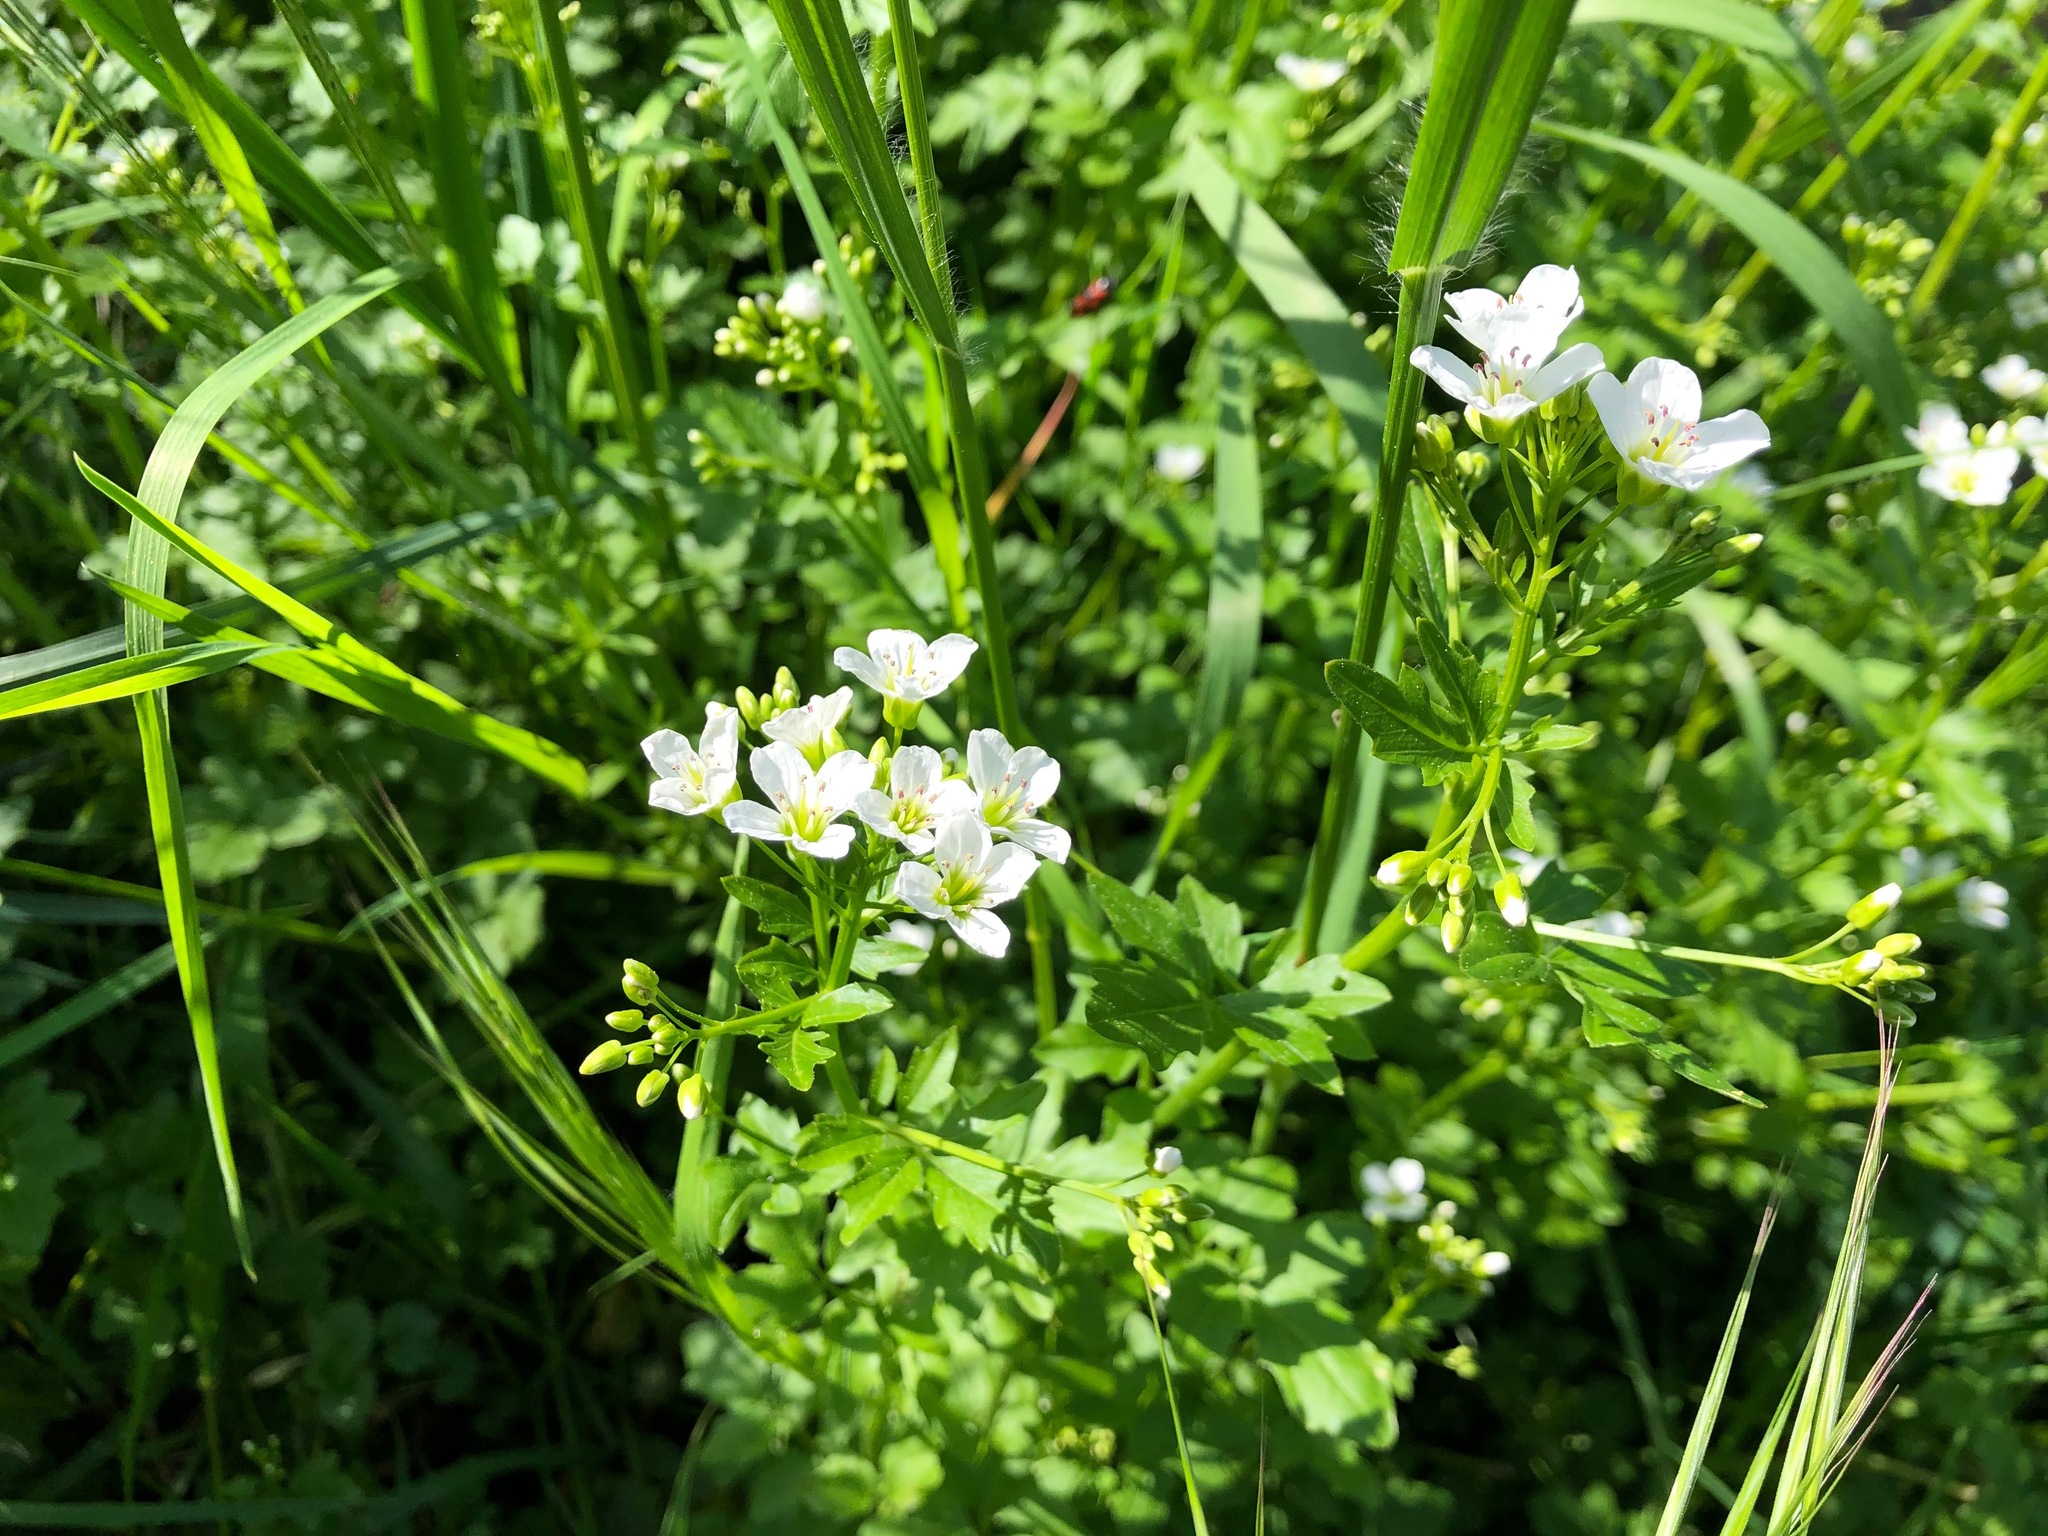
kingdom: Plantae
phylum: Tracheophyta
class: Magnoliopsida
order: Brassicales
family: Brassicaceae
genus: Cardamine
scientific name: Cardamine amara
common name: Large bitter-cress
